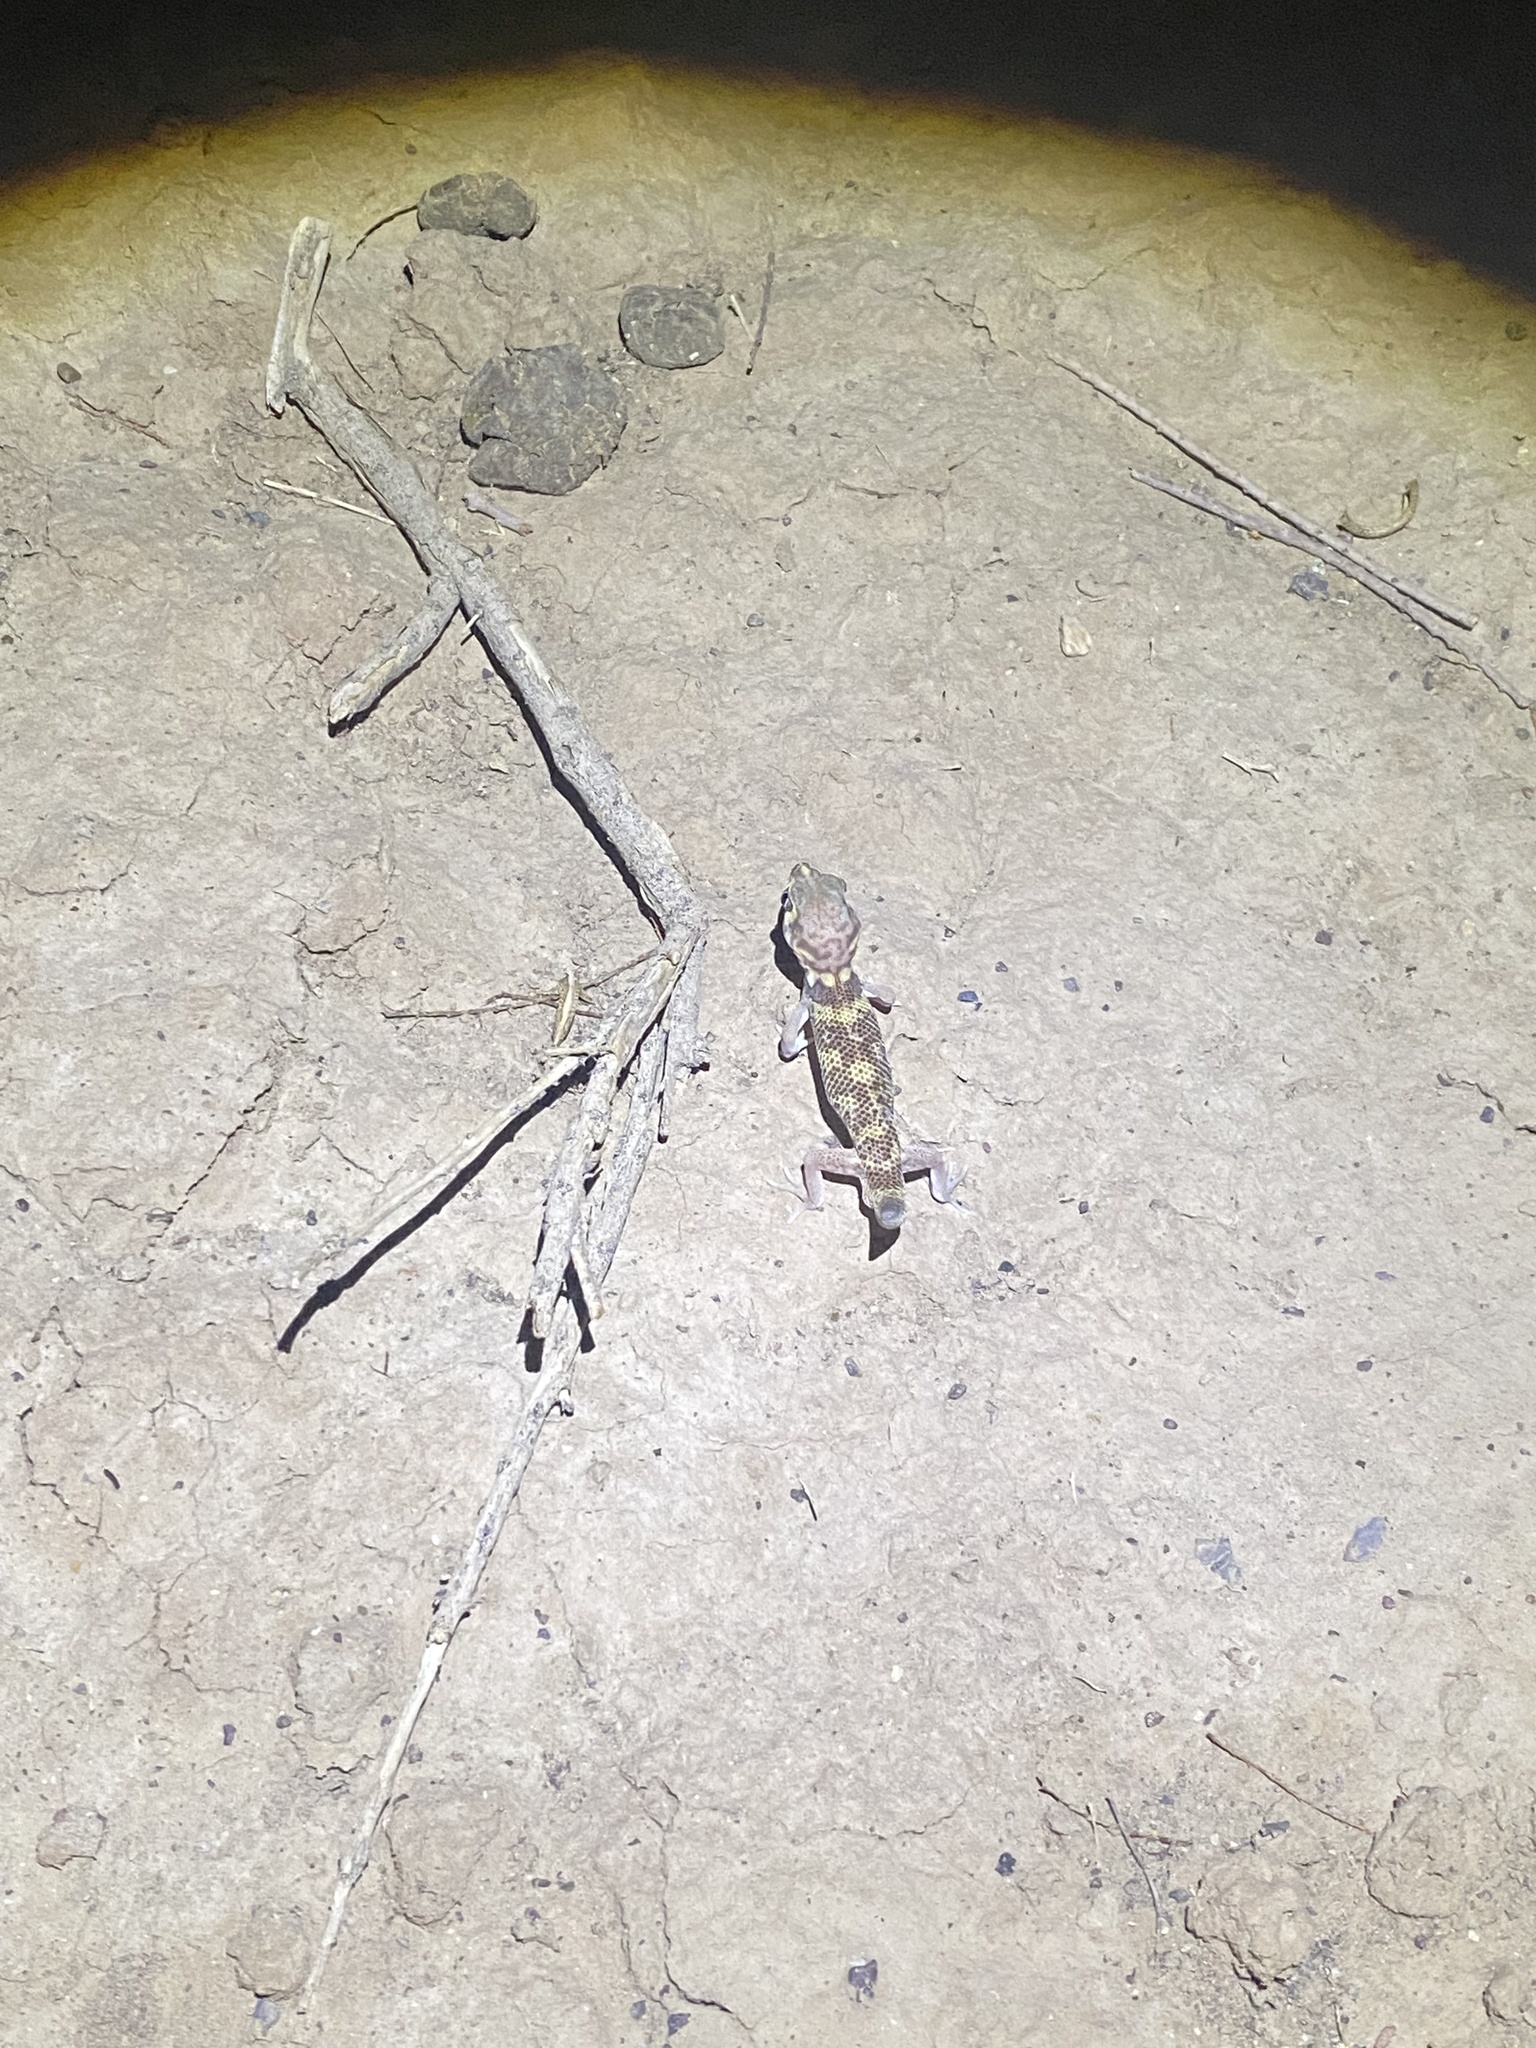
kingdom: Animalia
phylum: Chordata
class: Squamata
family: Sphaerodactylidae
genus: Teratoscincus
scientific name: Teratoscincus bedriagai
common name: Bedriaga's plate-tailed gecko
